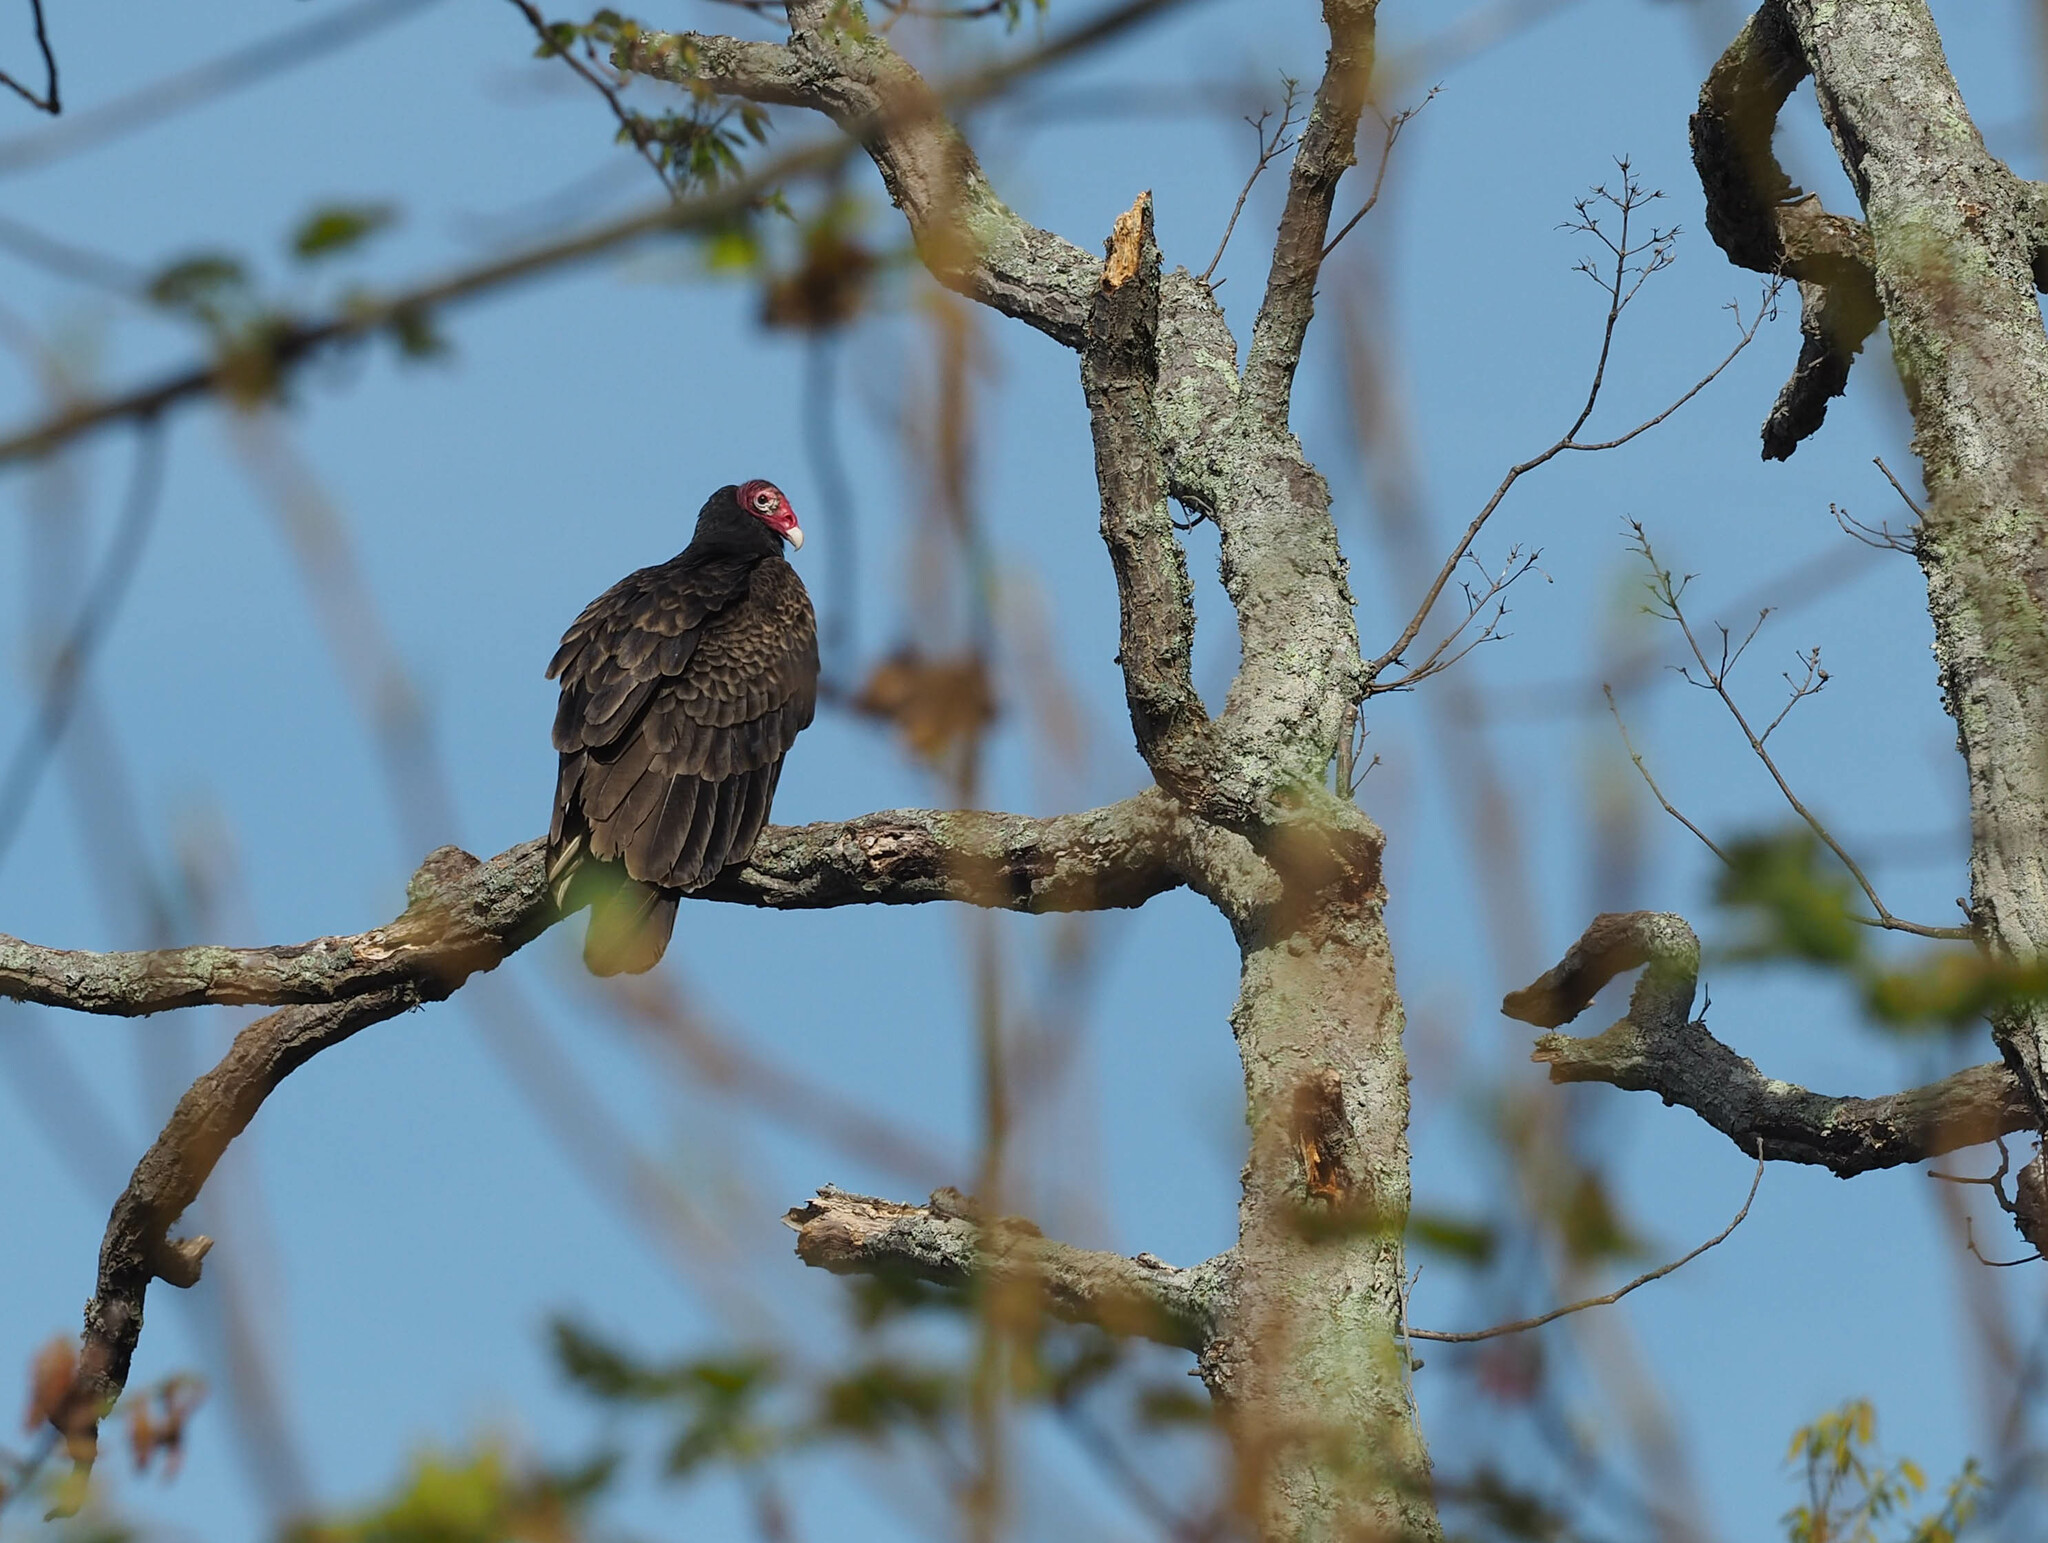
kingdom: Animalia
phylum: Chordata
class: Aves
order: Accipitriformes
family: Cathartidae
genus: Cathartes
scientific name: Cathartes aura
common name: Turkey vulture
